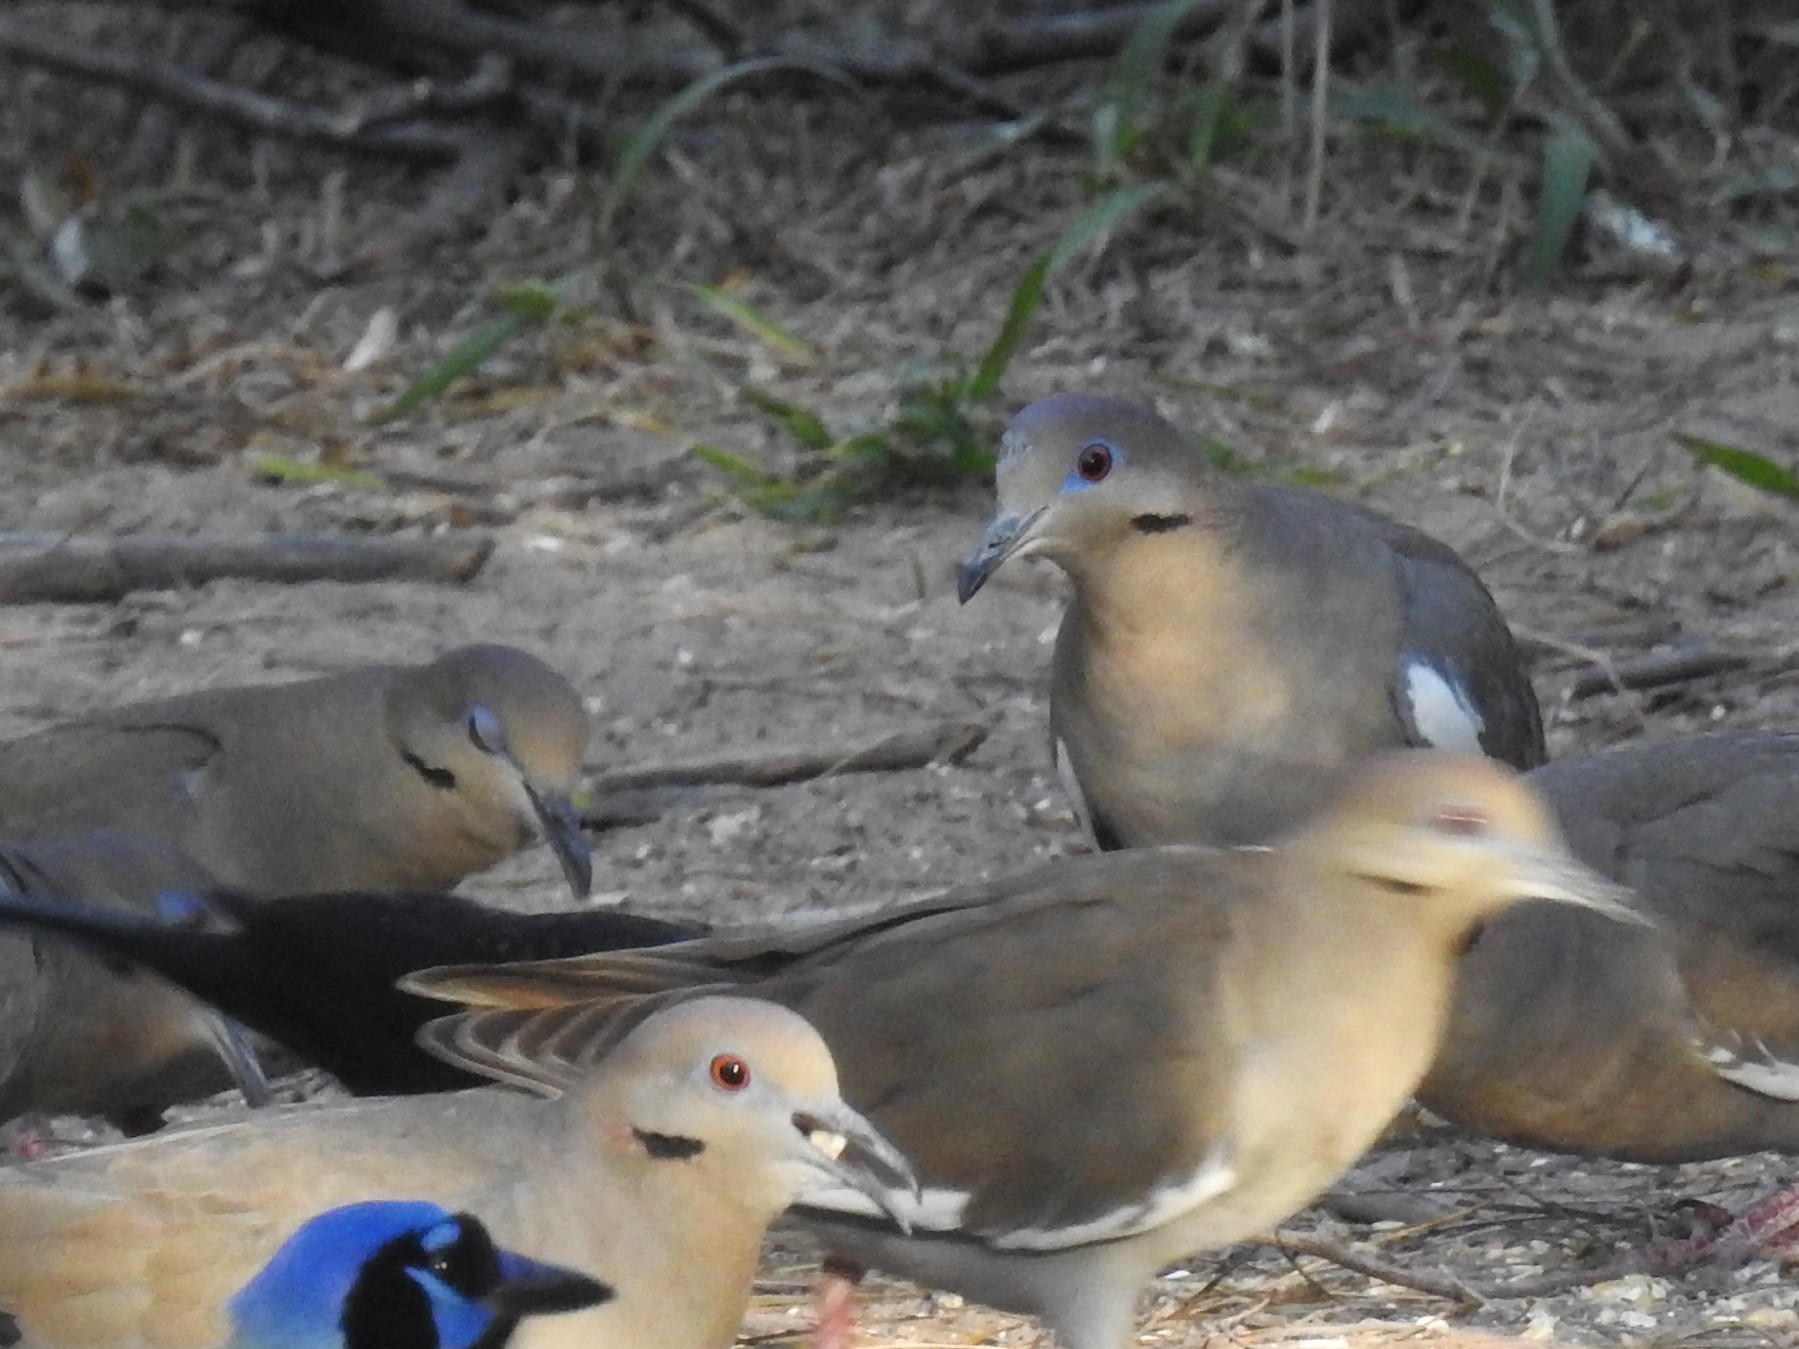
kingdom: Animalia
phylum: Chordata
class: Aves
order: Columbiformes
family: Columbidae
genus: Zenaida
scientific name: Zenaida asiatica
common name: White-winged dove
